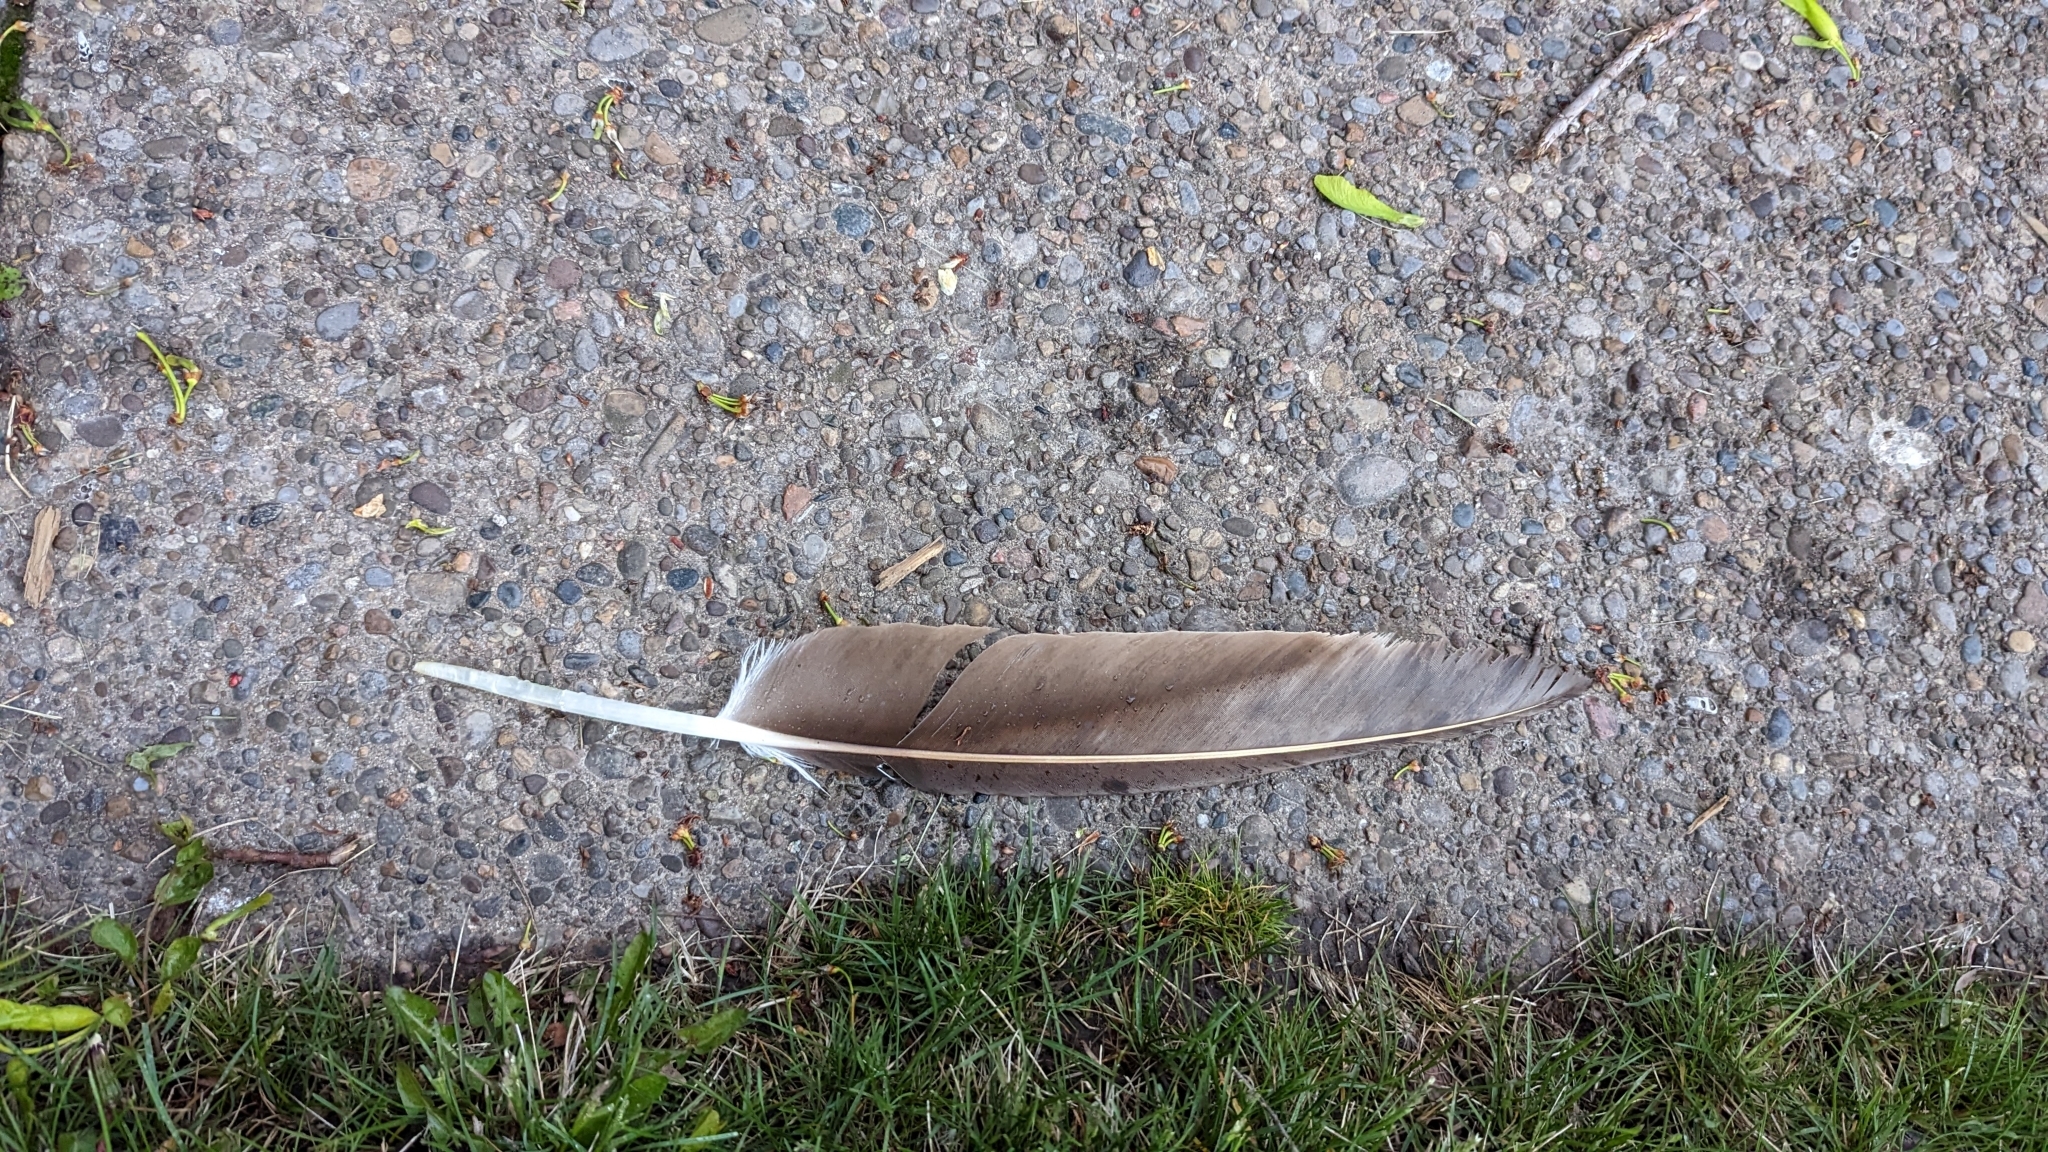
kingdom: Animalia
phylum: Chordata
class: Aves
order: Accipitriformes
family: Cathartidae
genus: Cathartes
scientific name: Cathartes aura
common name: Turkey vulture
